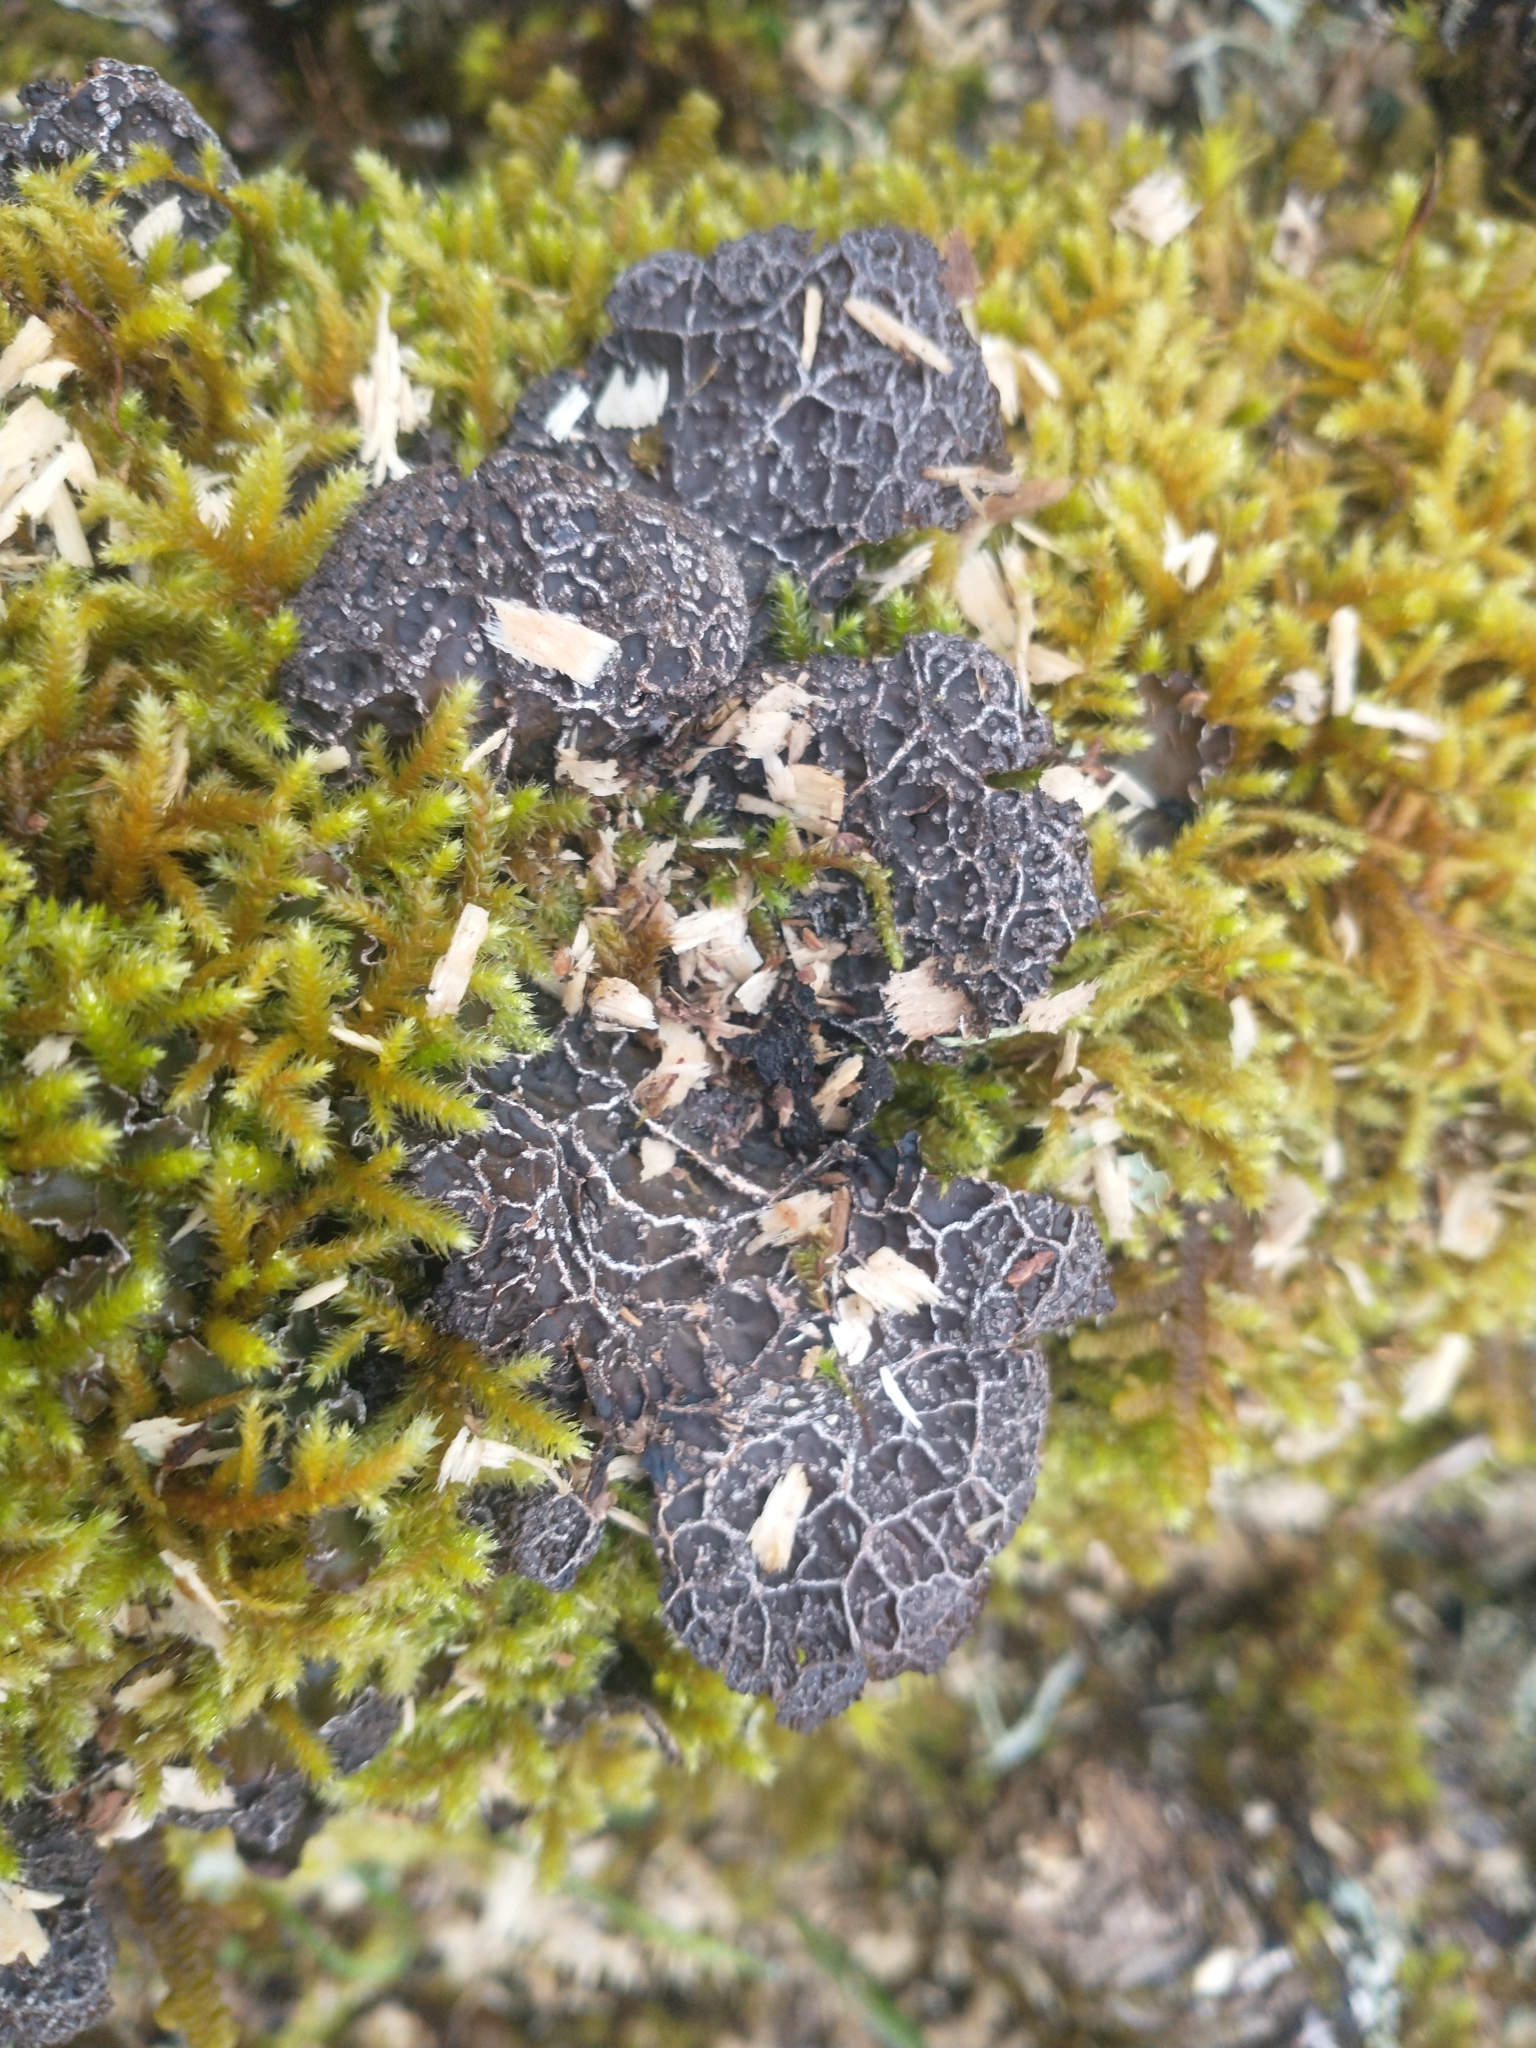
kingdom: Fungi
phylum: Ascomycota
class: Lecanoromycetes
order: Peltigerales
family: Lobariaceae
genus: Lobaria
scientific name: Lobaria anomala
